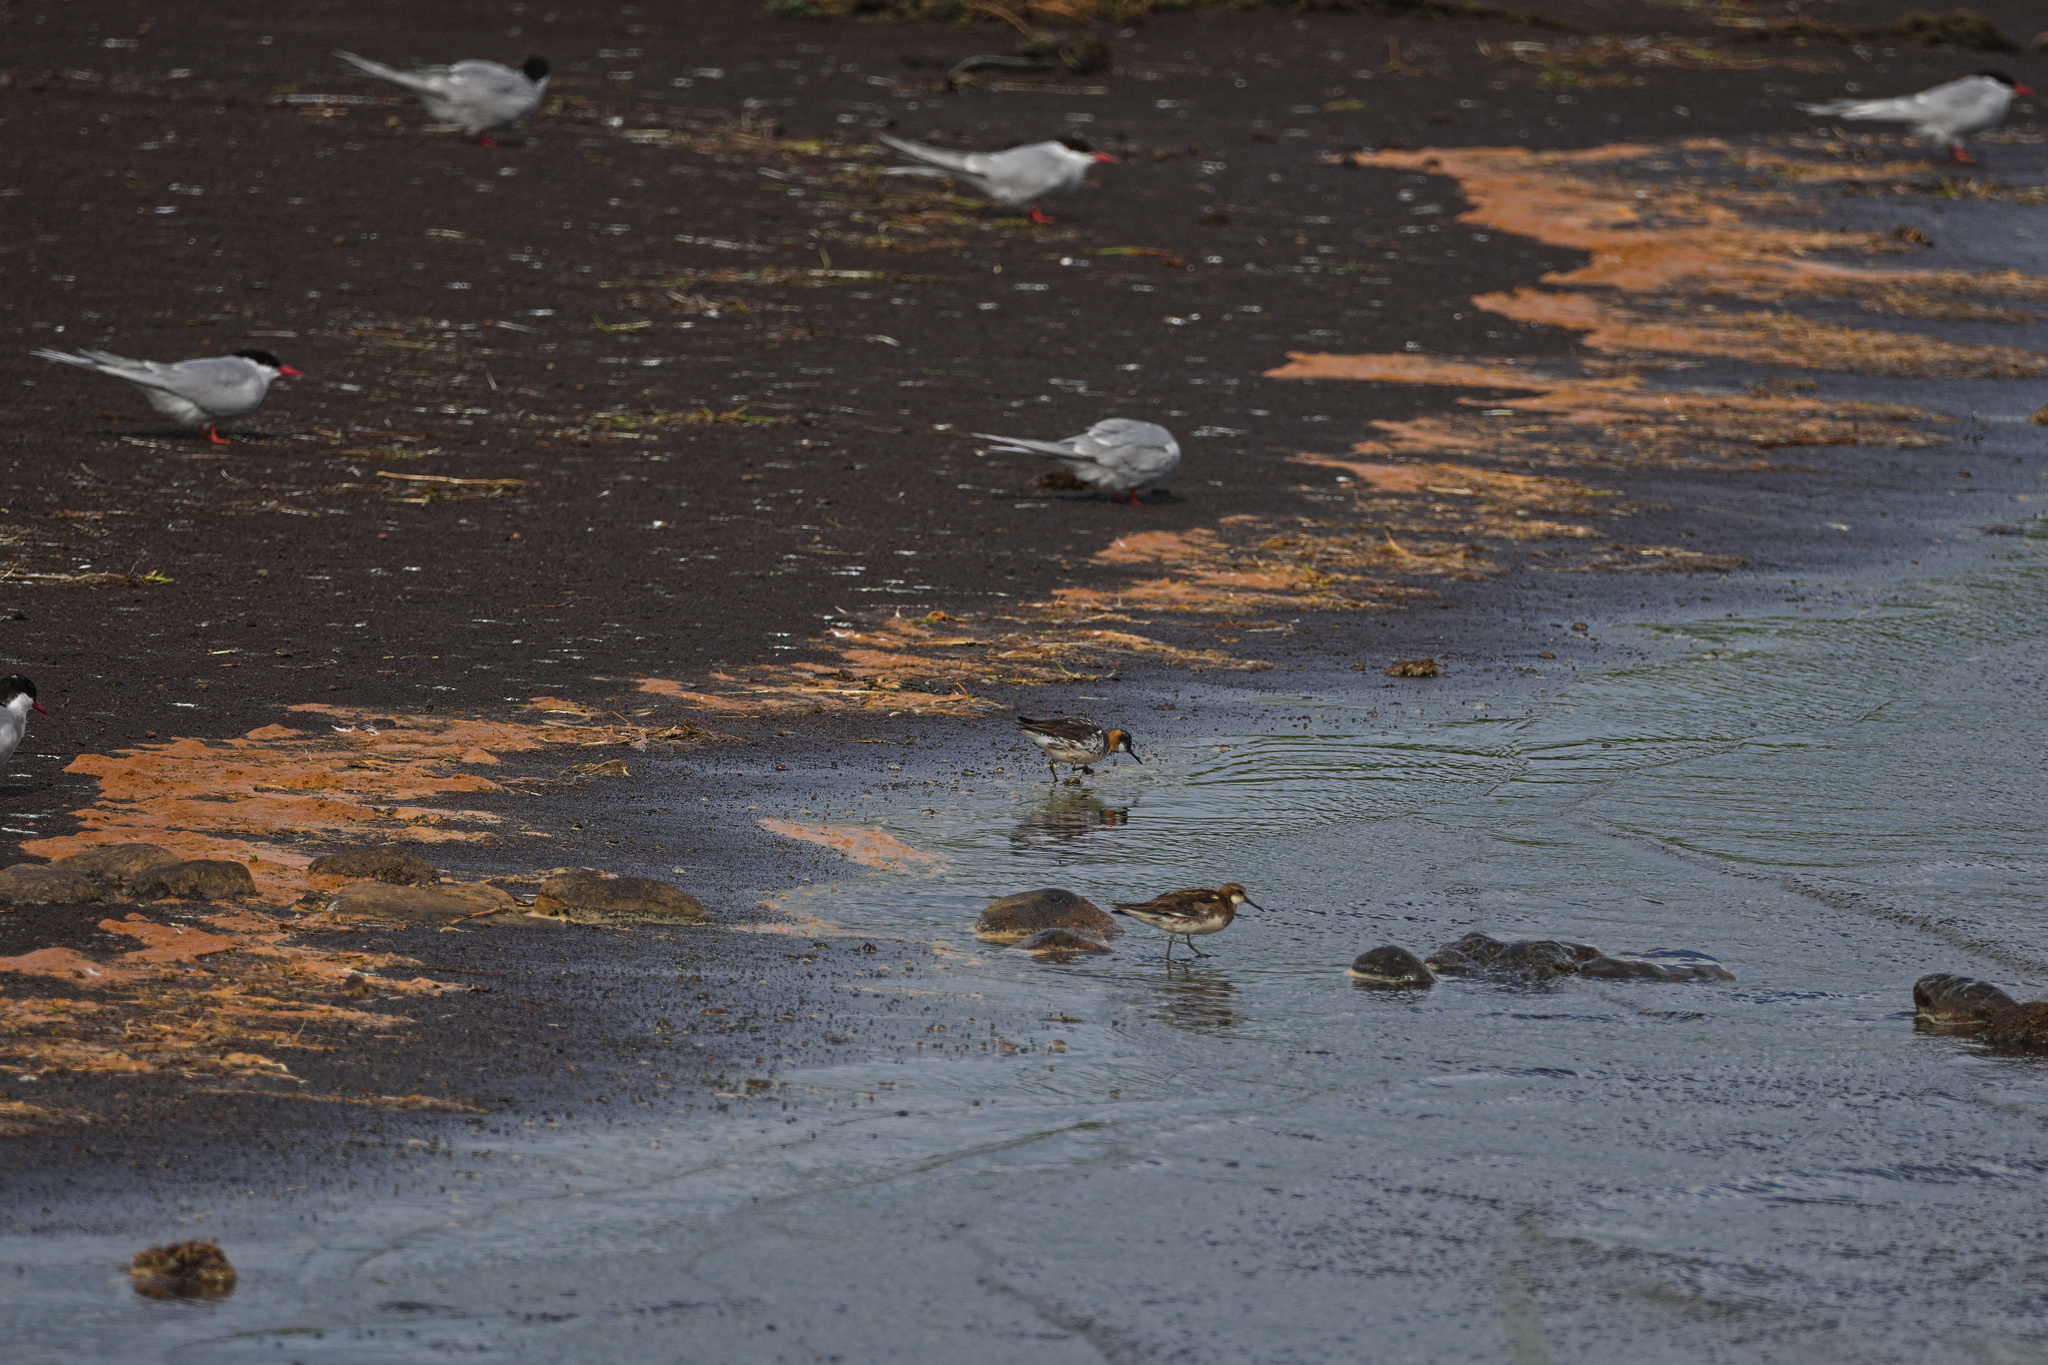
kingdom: Animalia
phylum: Chordata
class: Aves
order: Charadriiformes
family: Scolopacidae
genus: Phalaropus
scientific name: Phalaropus lobatus
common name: Red-necked phalarope
